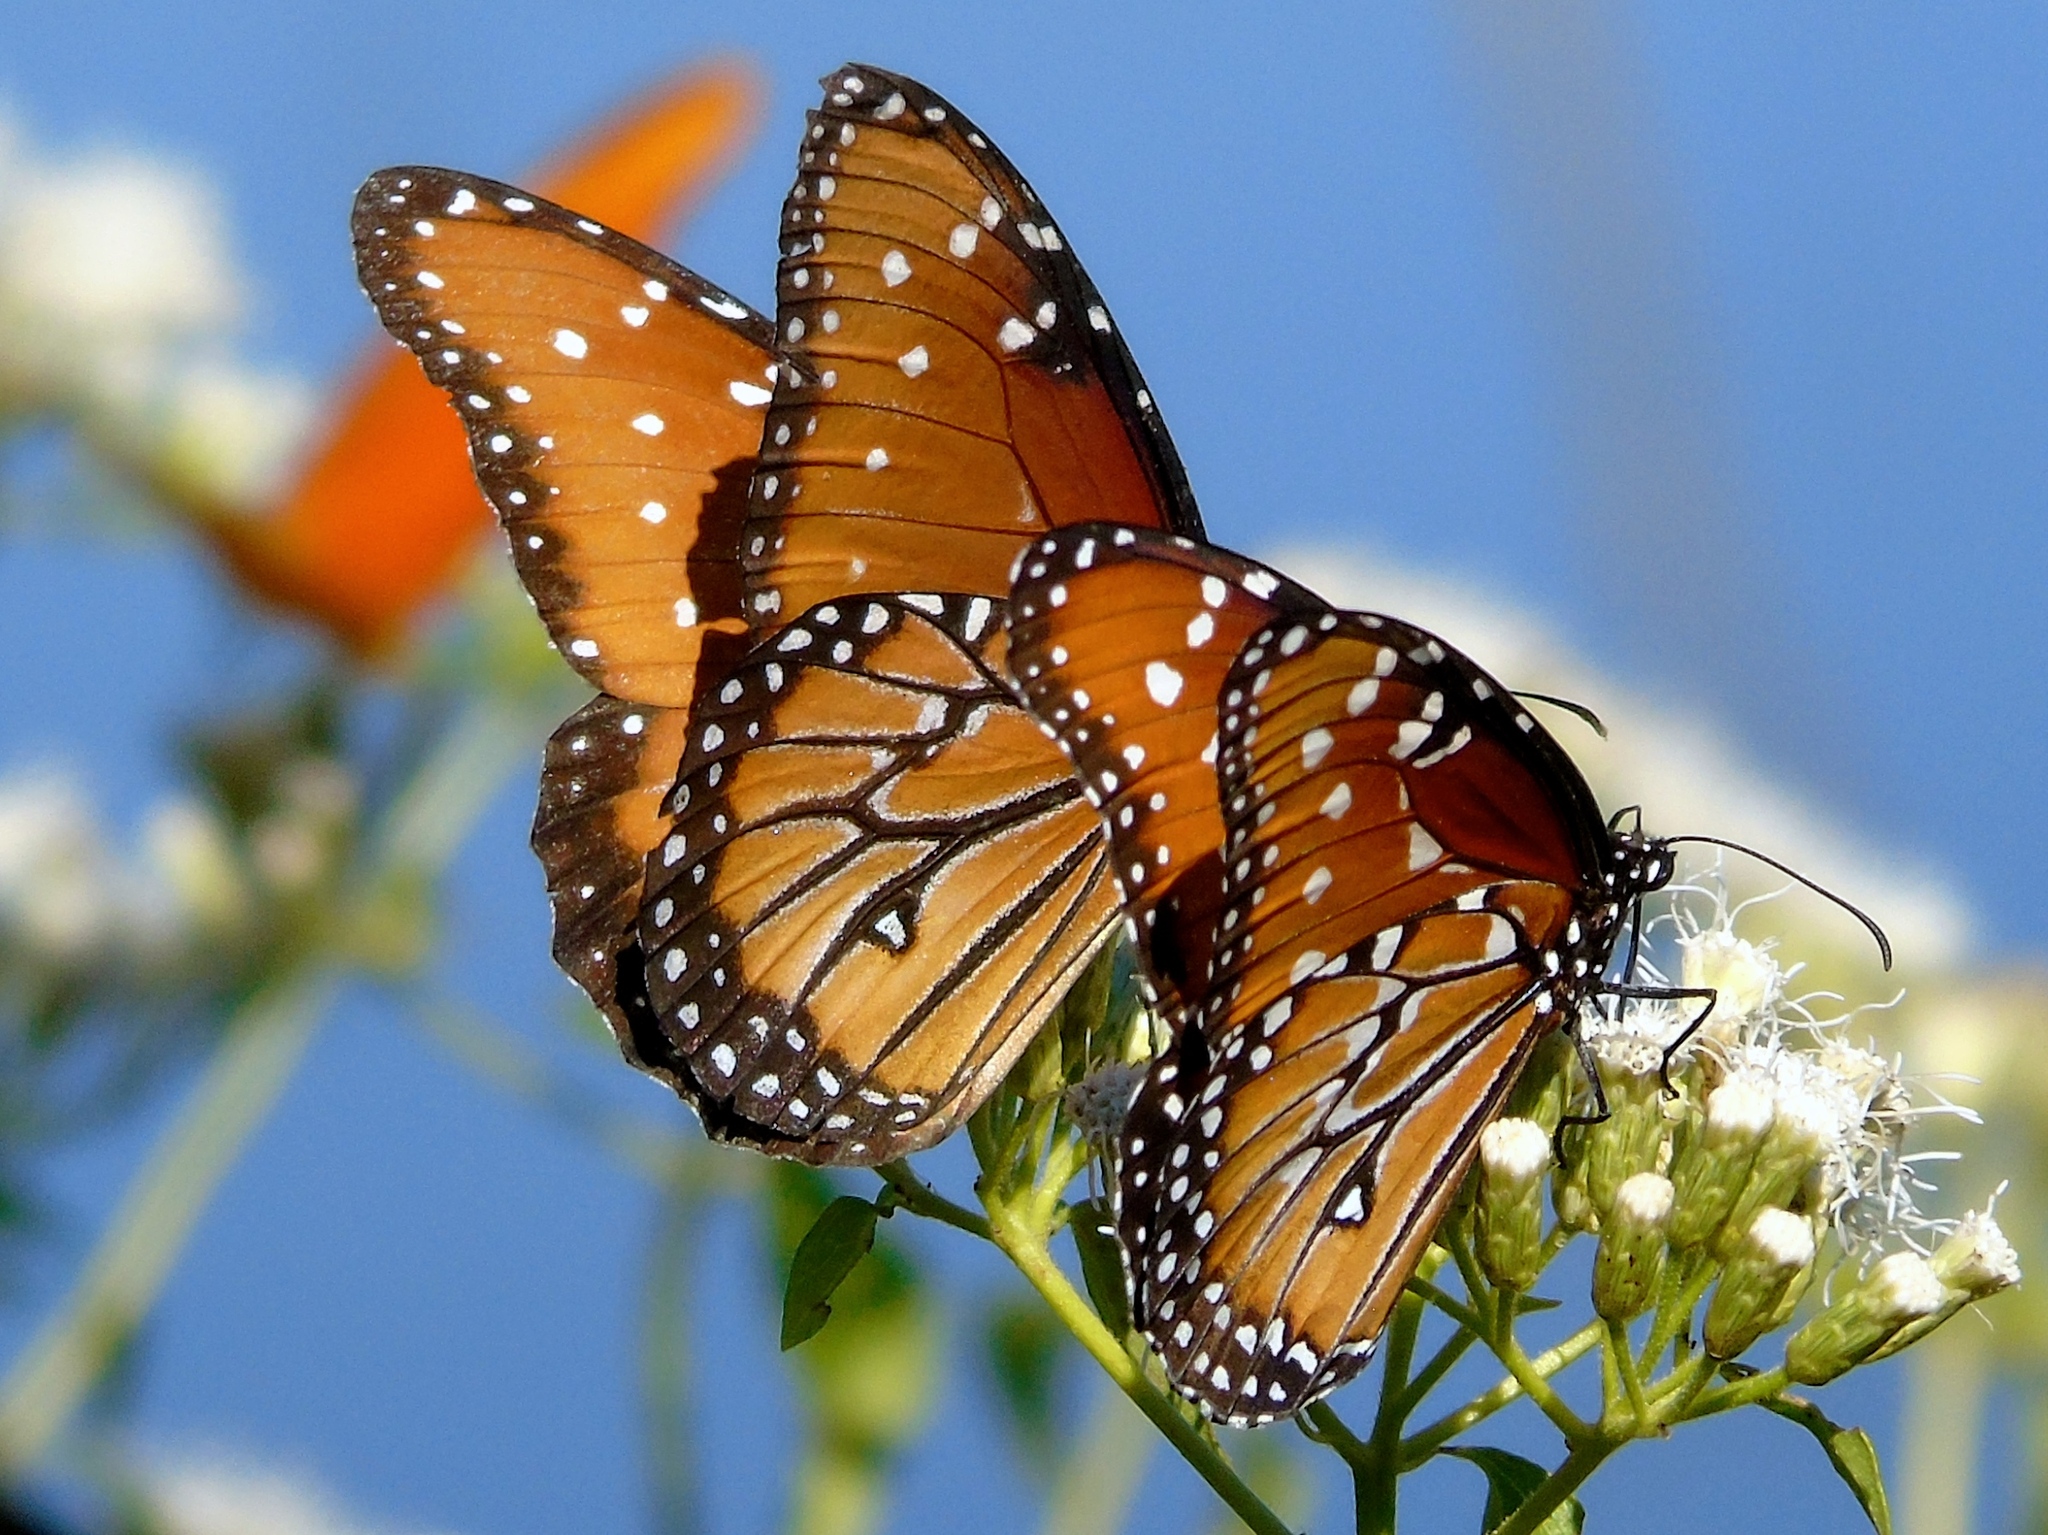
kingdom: Animalia
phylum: Arthropoda
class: Insecta
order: Lepidoptera
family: Nymphalidae
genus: Danaus
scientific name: Danaus gilippus
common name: Queen
